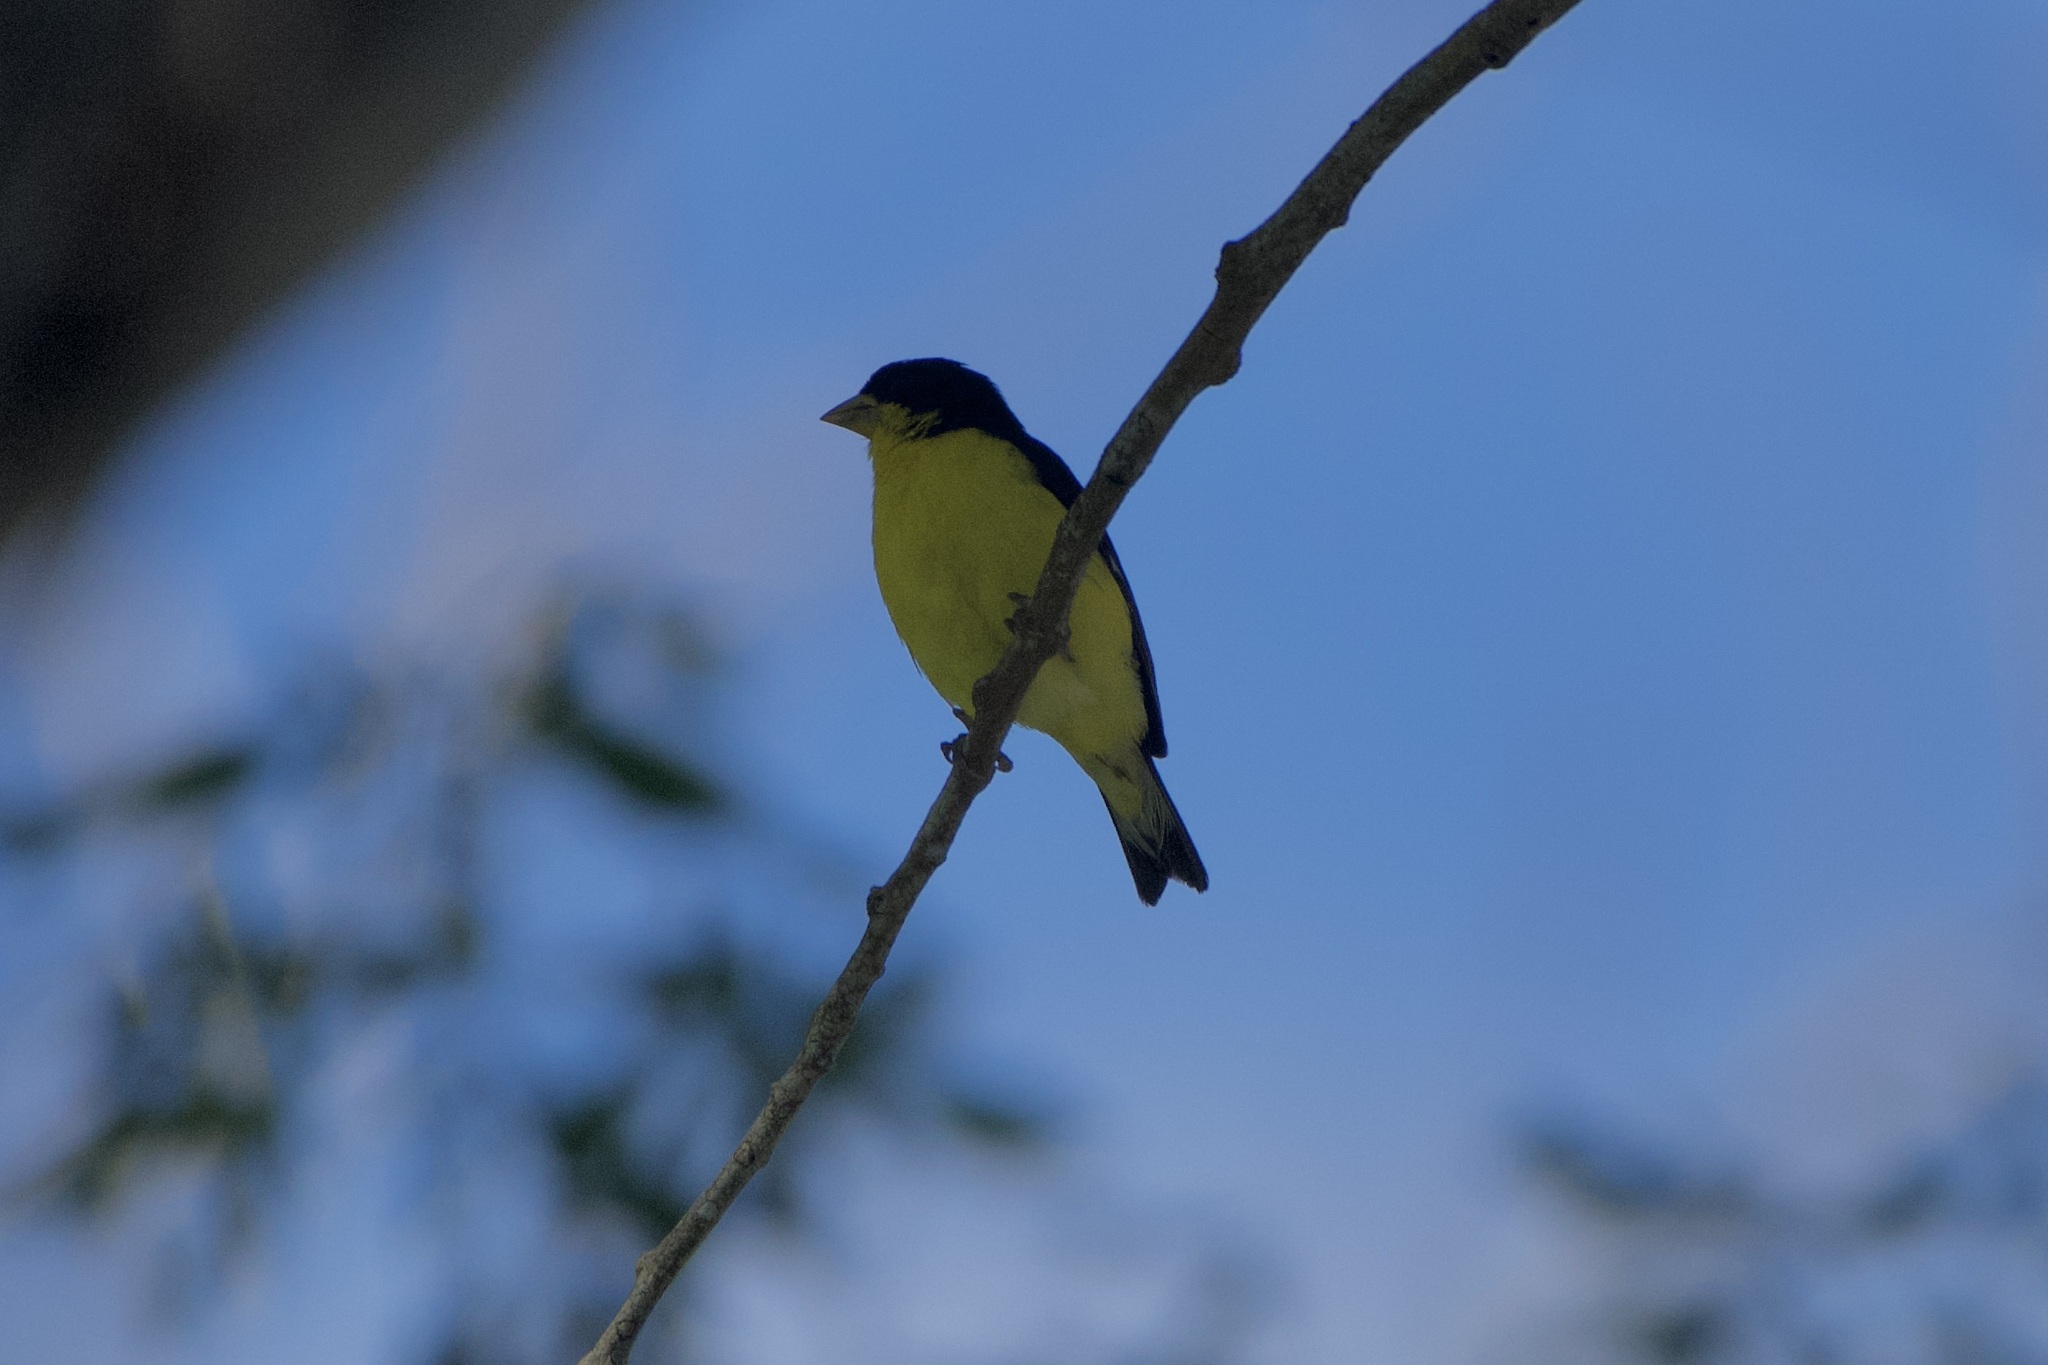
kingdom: Animalia
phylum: Chordata
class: Aves
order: Passeriformes
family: Fringillidae
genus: Spinus
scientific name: Spinus psaltria
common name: Lesser goldfinch
